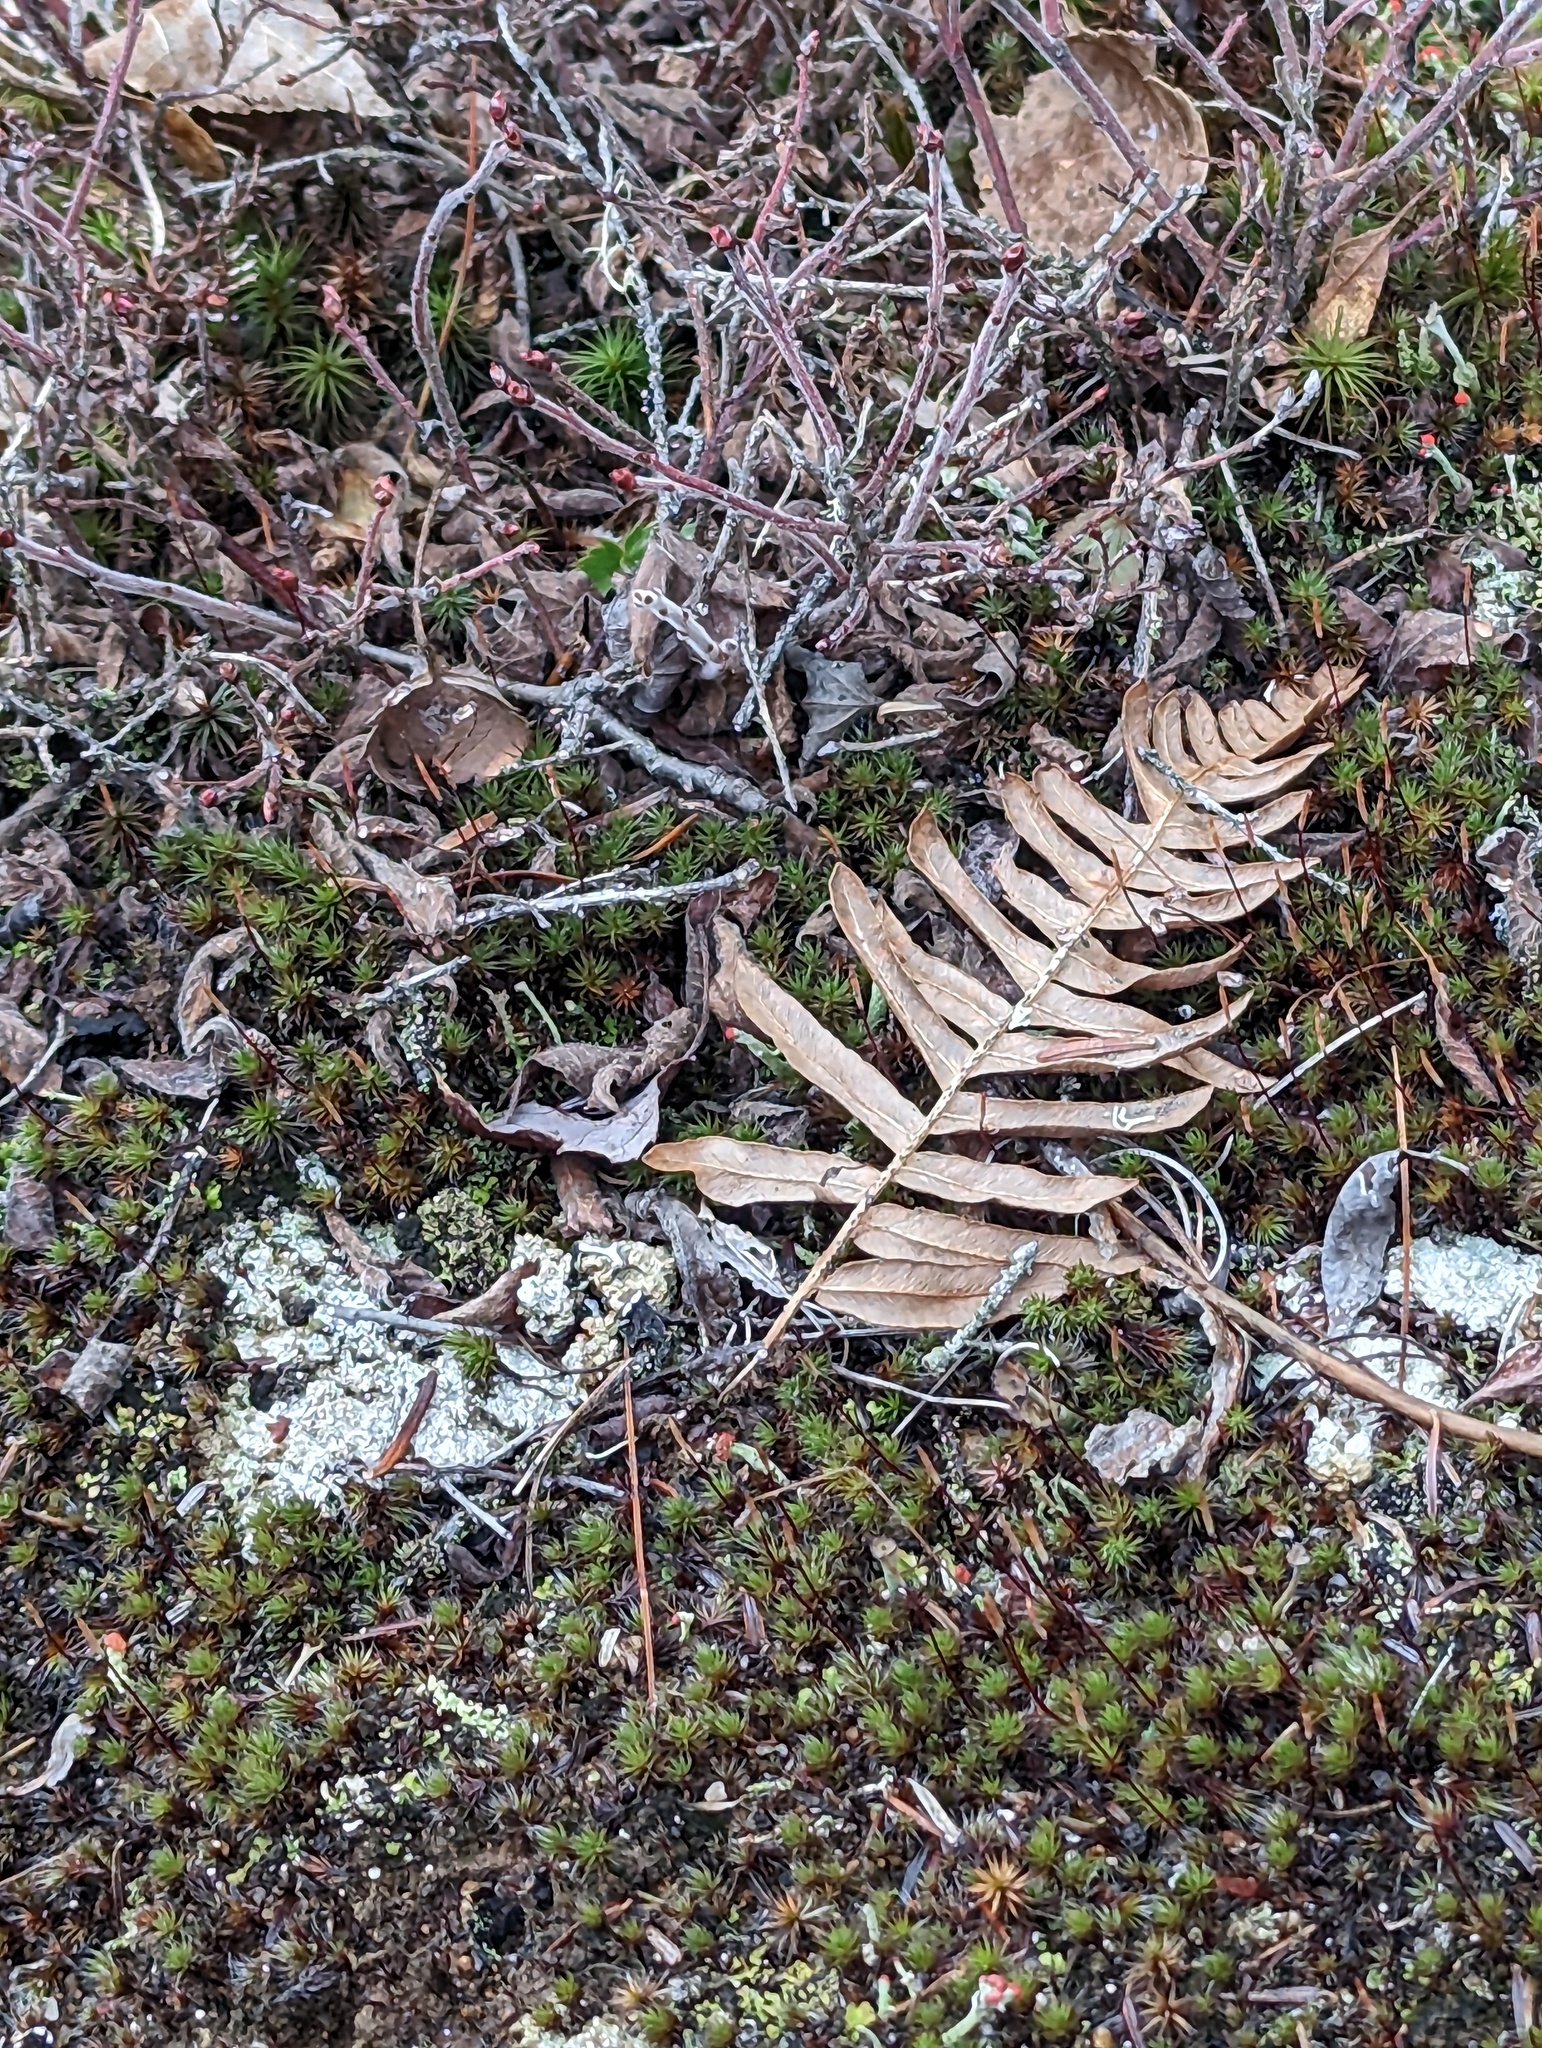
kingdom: Plantae
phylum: Tracheophyta
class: Polypodiopsida
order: Polypodiales
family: Dennstaedtiaceae
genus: Pteridium
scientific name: Pteridium aquilinum
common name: Bracken
